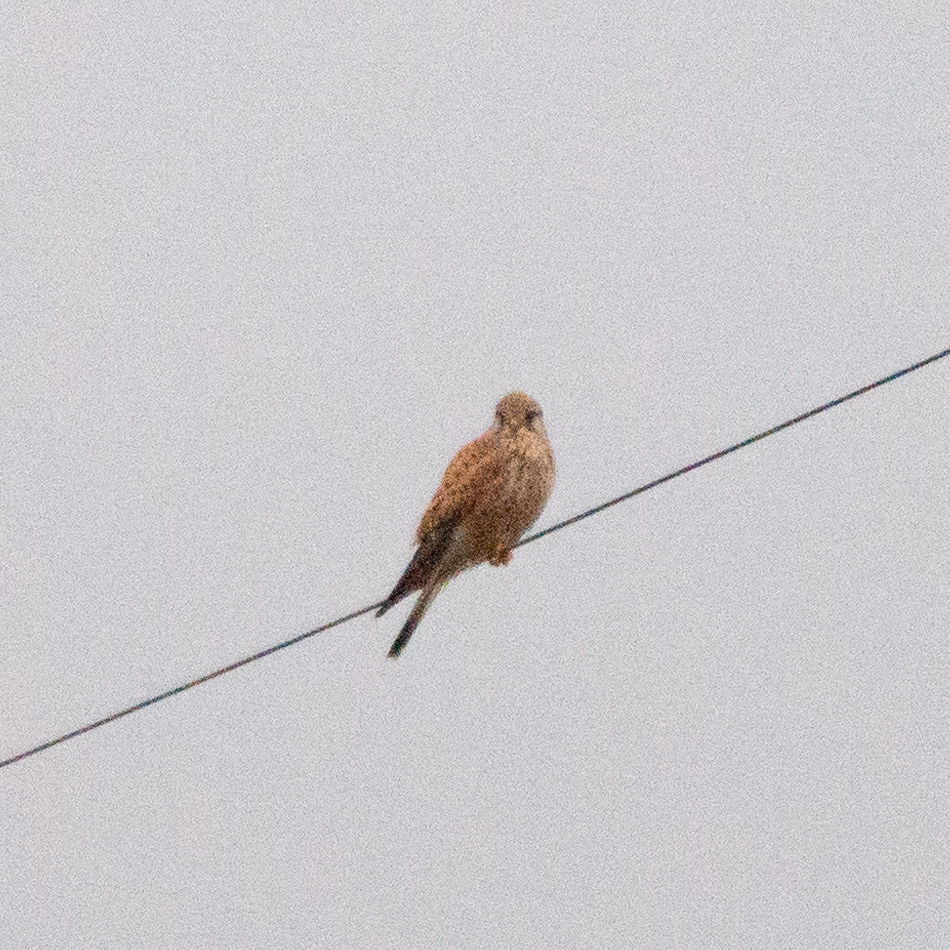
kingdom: Animalia
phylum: Chordata
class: Aves
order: Falconiformes
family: Falconidae
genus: Falco
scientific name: Falco tinnunculus
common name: Common kestrel
